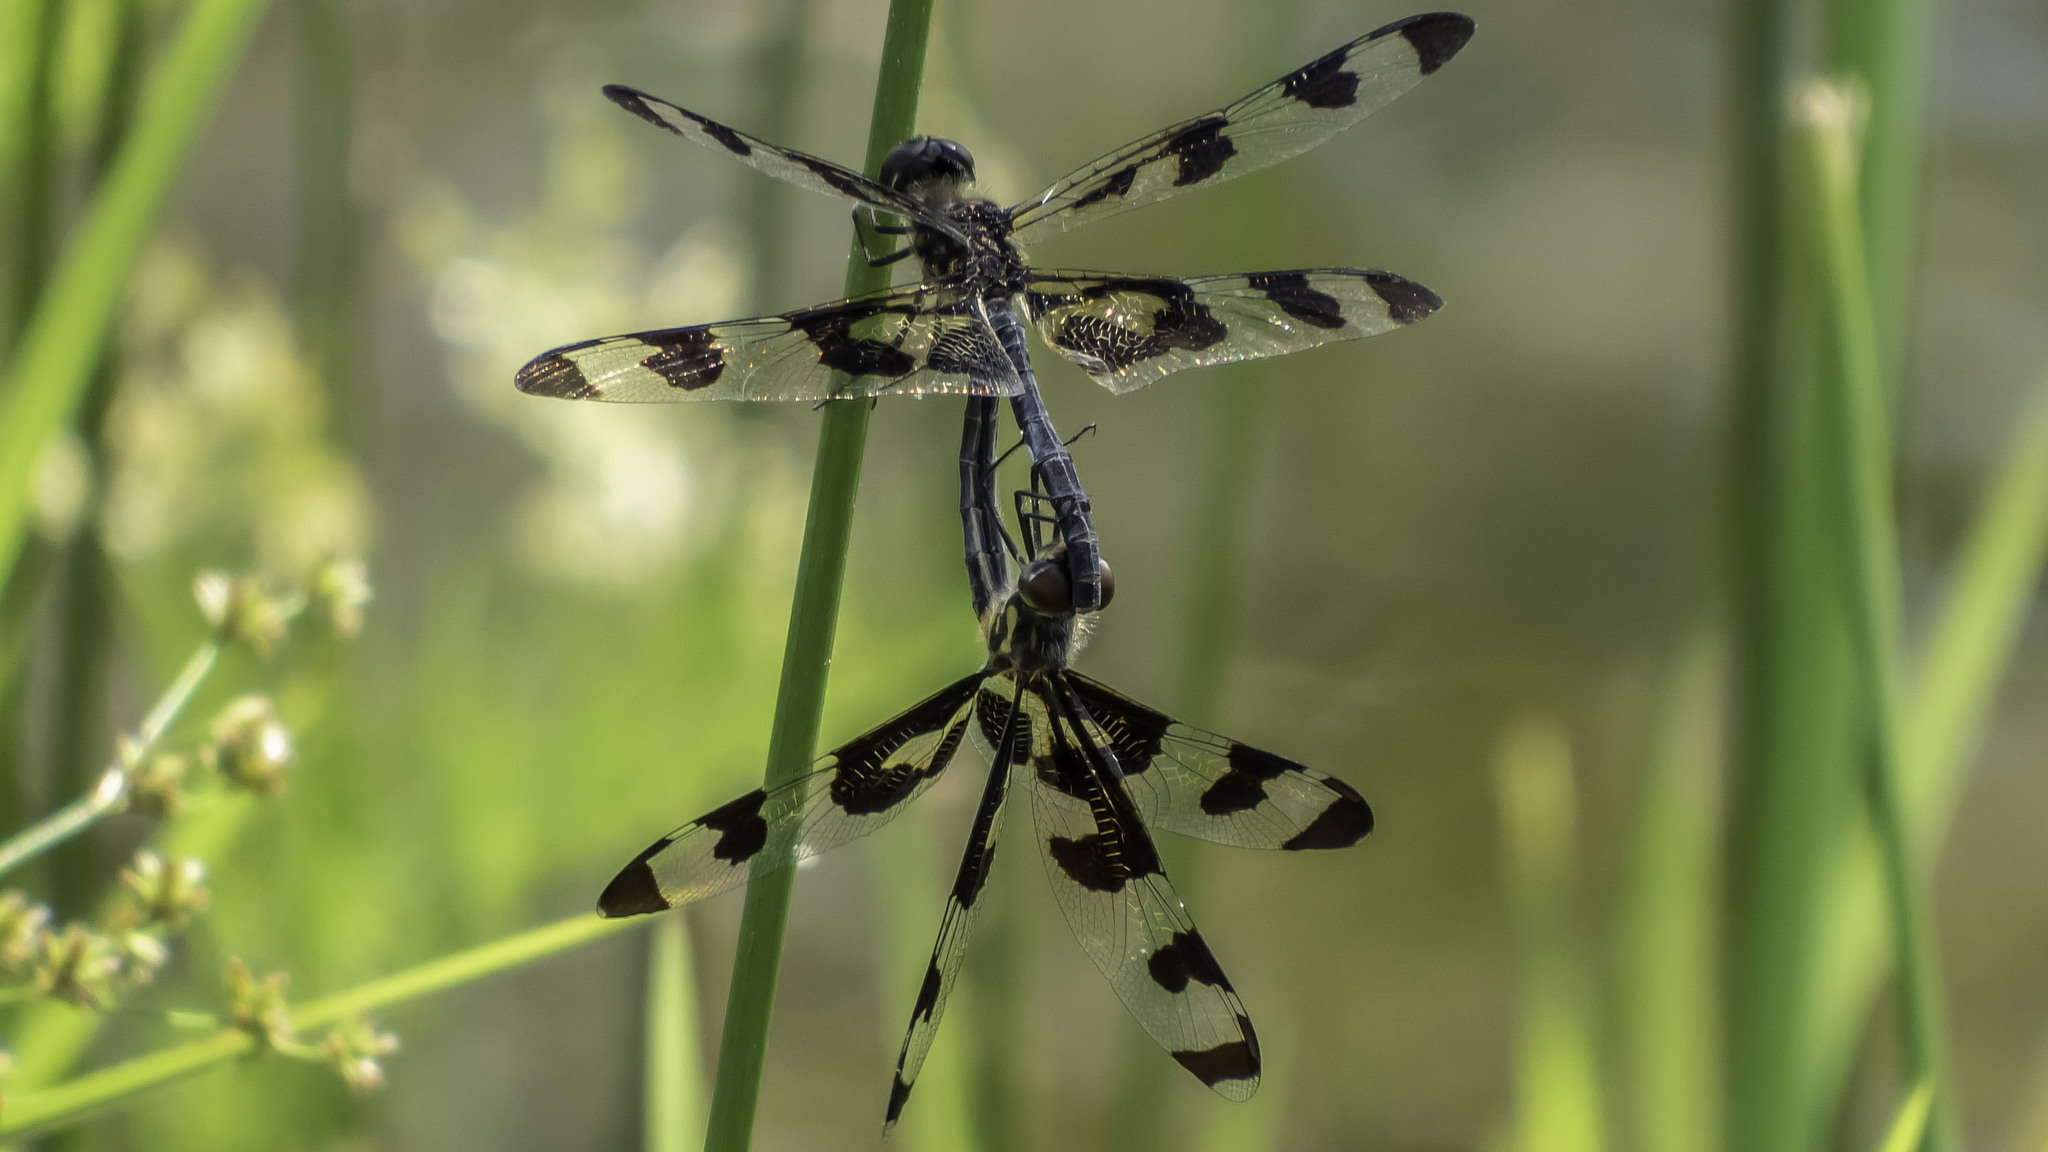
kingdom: Animalia
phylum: Arthropoda
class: Insecta
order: Odonata
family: Libellulidae
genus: Celithemis
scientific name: Celithemis fasciata
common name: Banded pennant
